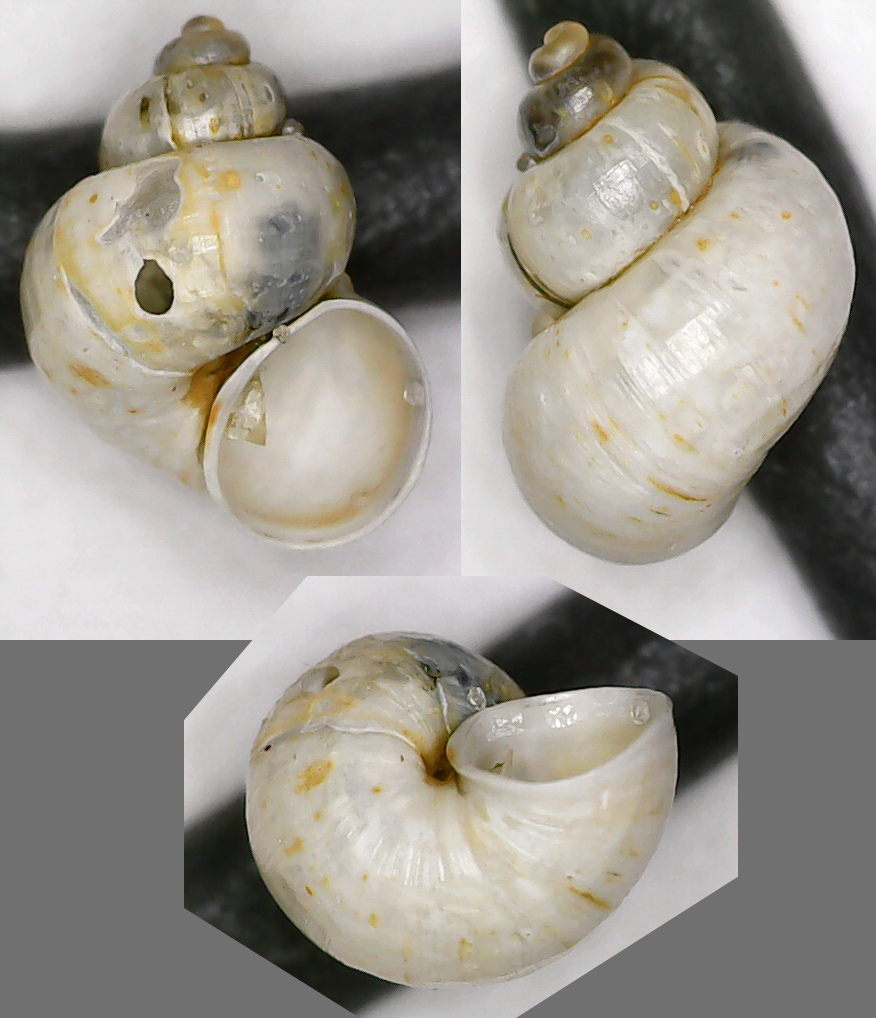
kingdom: Animalia
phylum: Mollusca
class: Gastropoda
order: Littorinimorpha
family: Bithyniidae
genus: Bithynia
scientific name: Bithynia leachii
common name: Leach's bithynia
